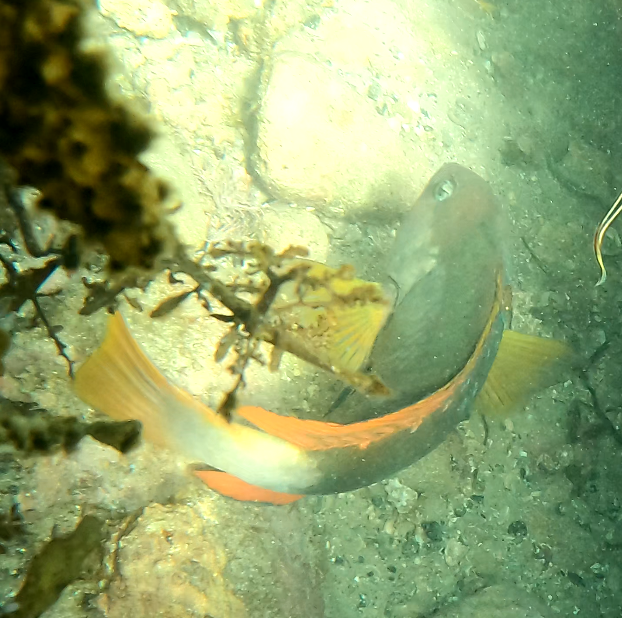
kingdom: Animalia
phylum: Chordata
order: Perciformes
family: Labridae
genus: Notolabrus
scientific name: Notolabrus gymnogenis
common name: Crimson banded wrasse
